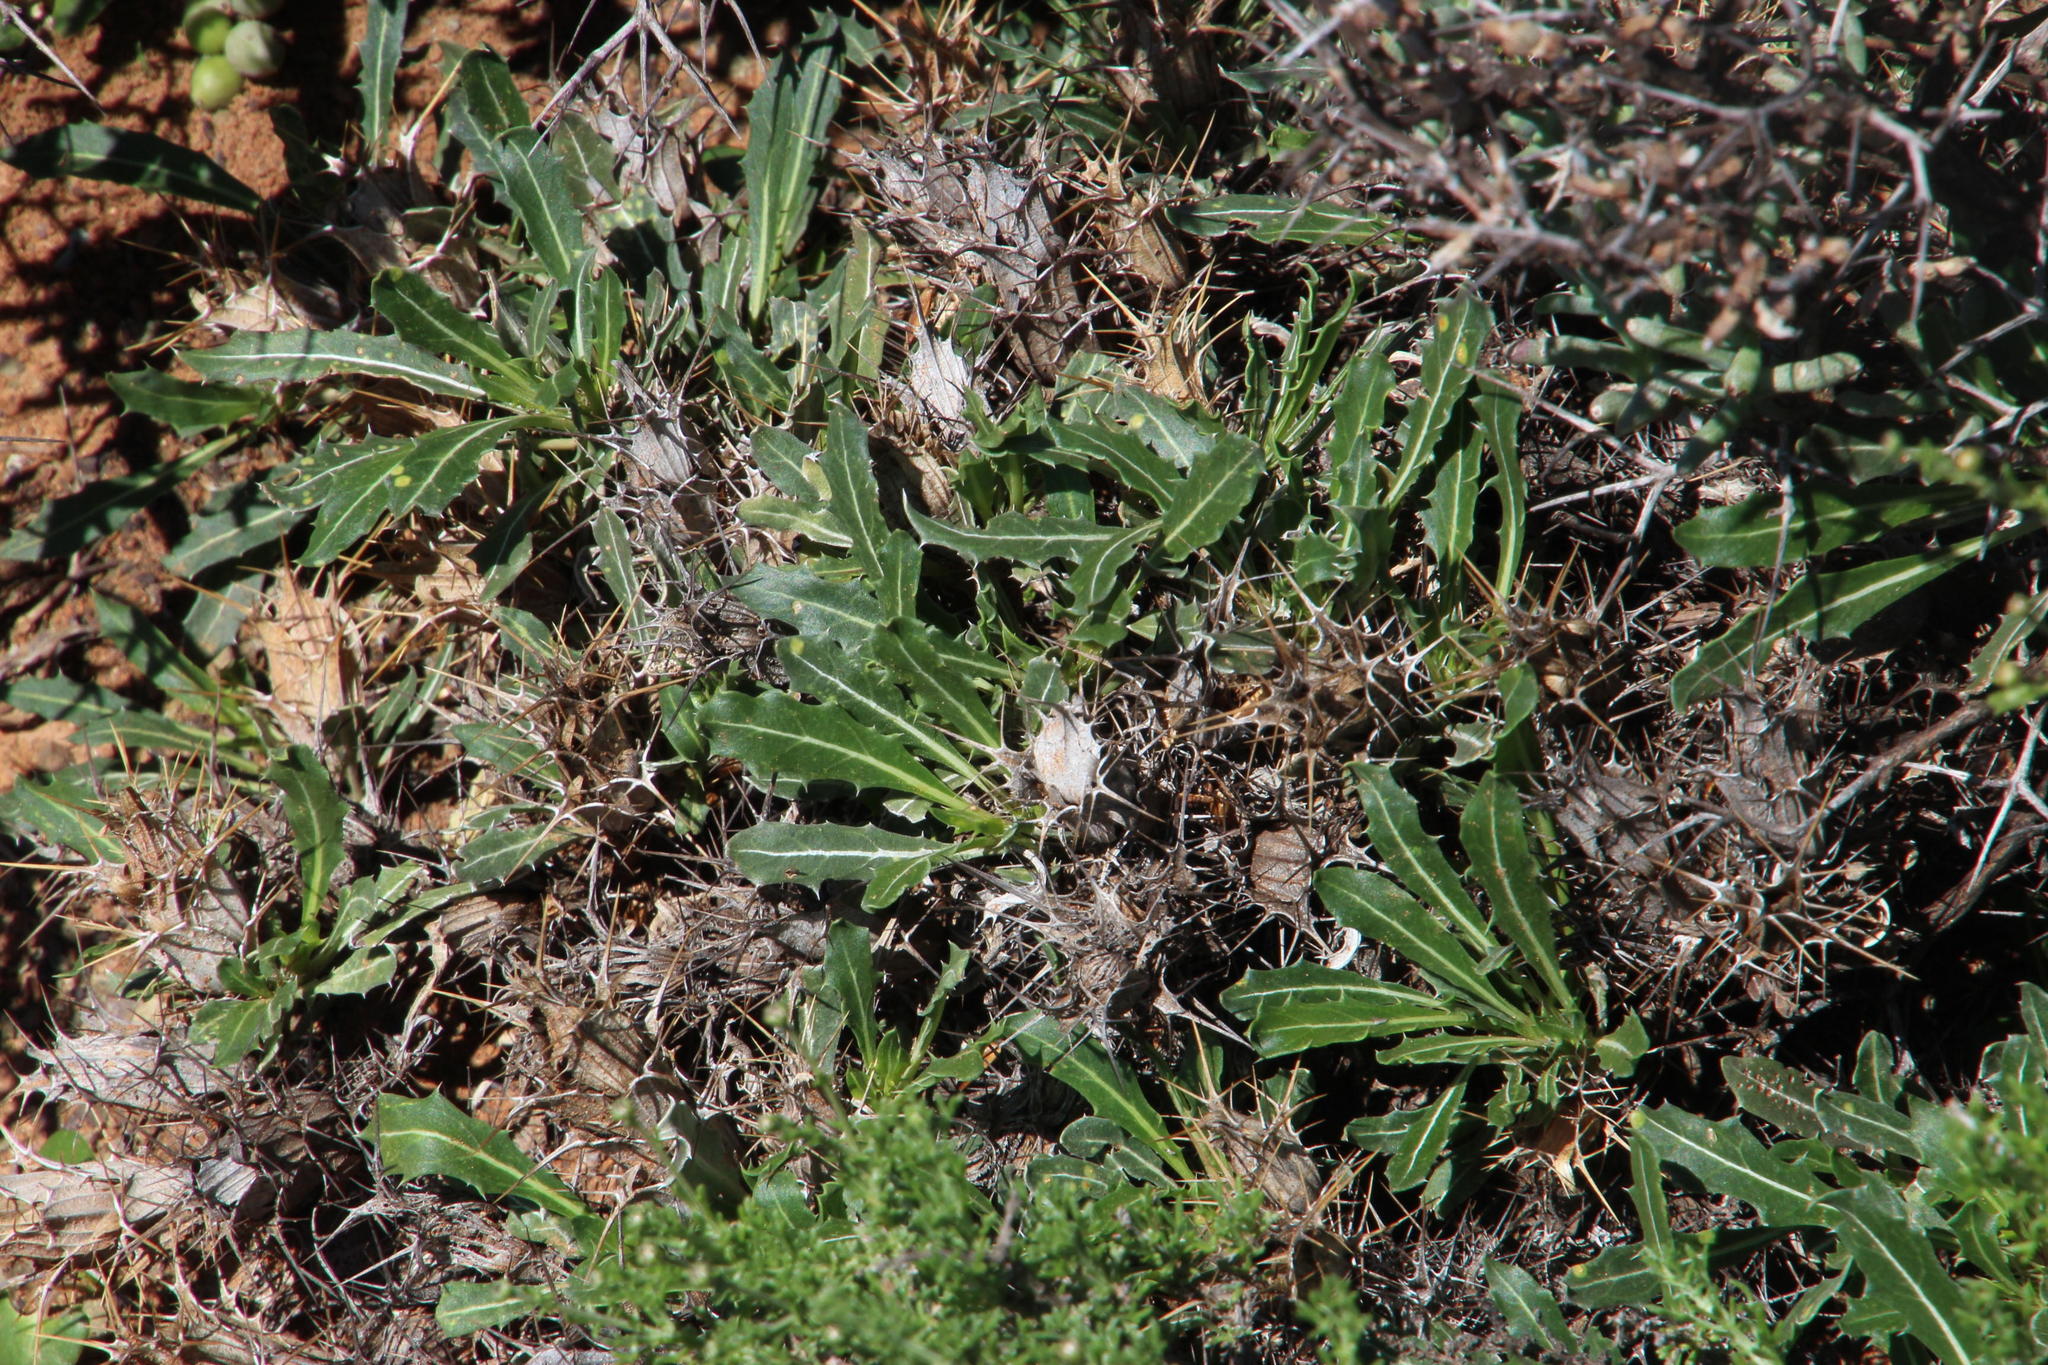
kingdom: Plantae
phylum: Tracheophyta
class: Magnoliopsida
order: Lamiales
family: Acanthaceae
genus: Blepharis
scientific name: Blepharis mitrata
